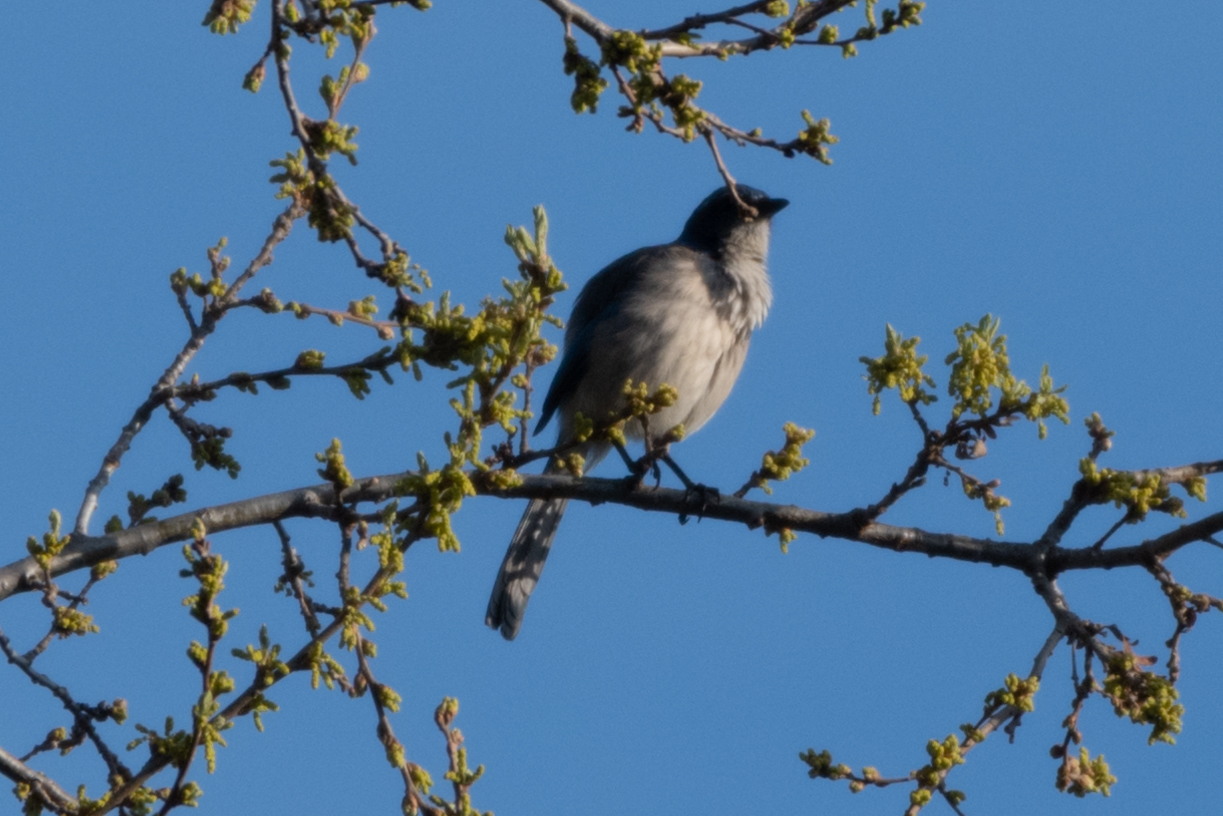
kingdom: Animalia
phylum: Chordata
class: Aves
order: Passeriformes
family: Corvidae
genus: Aphelocoma
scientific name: Aphelocoma californica
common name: California scrub-jay
